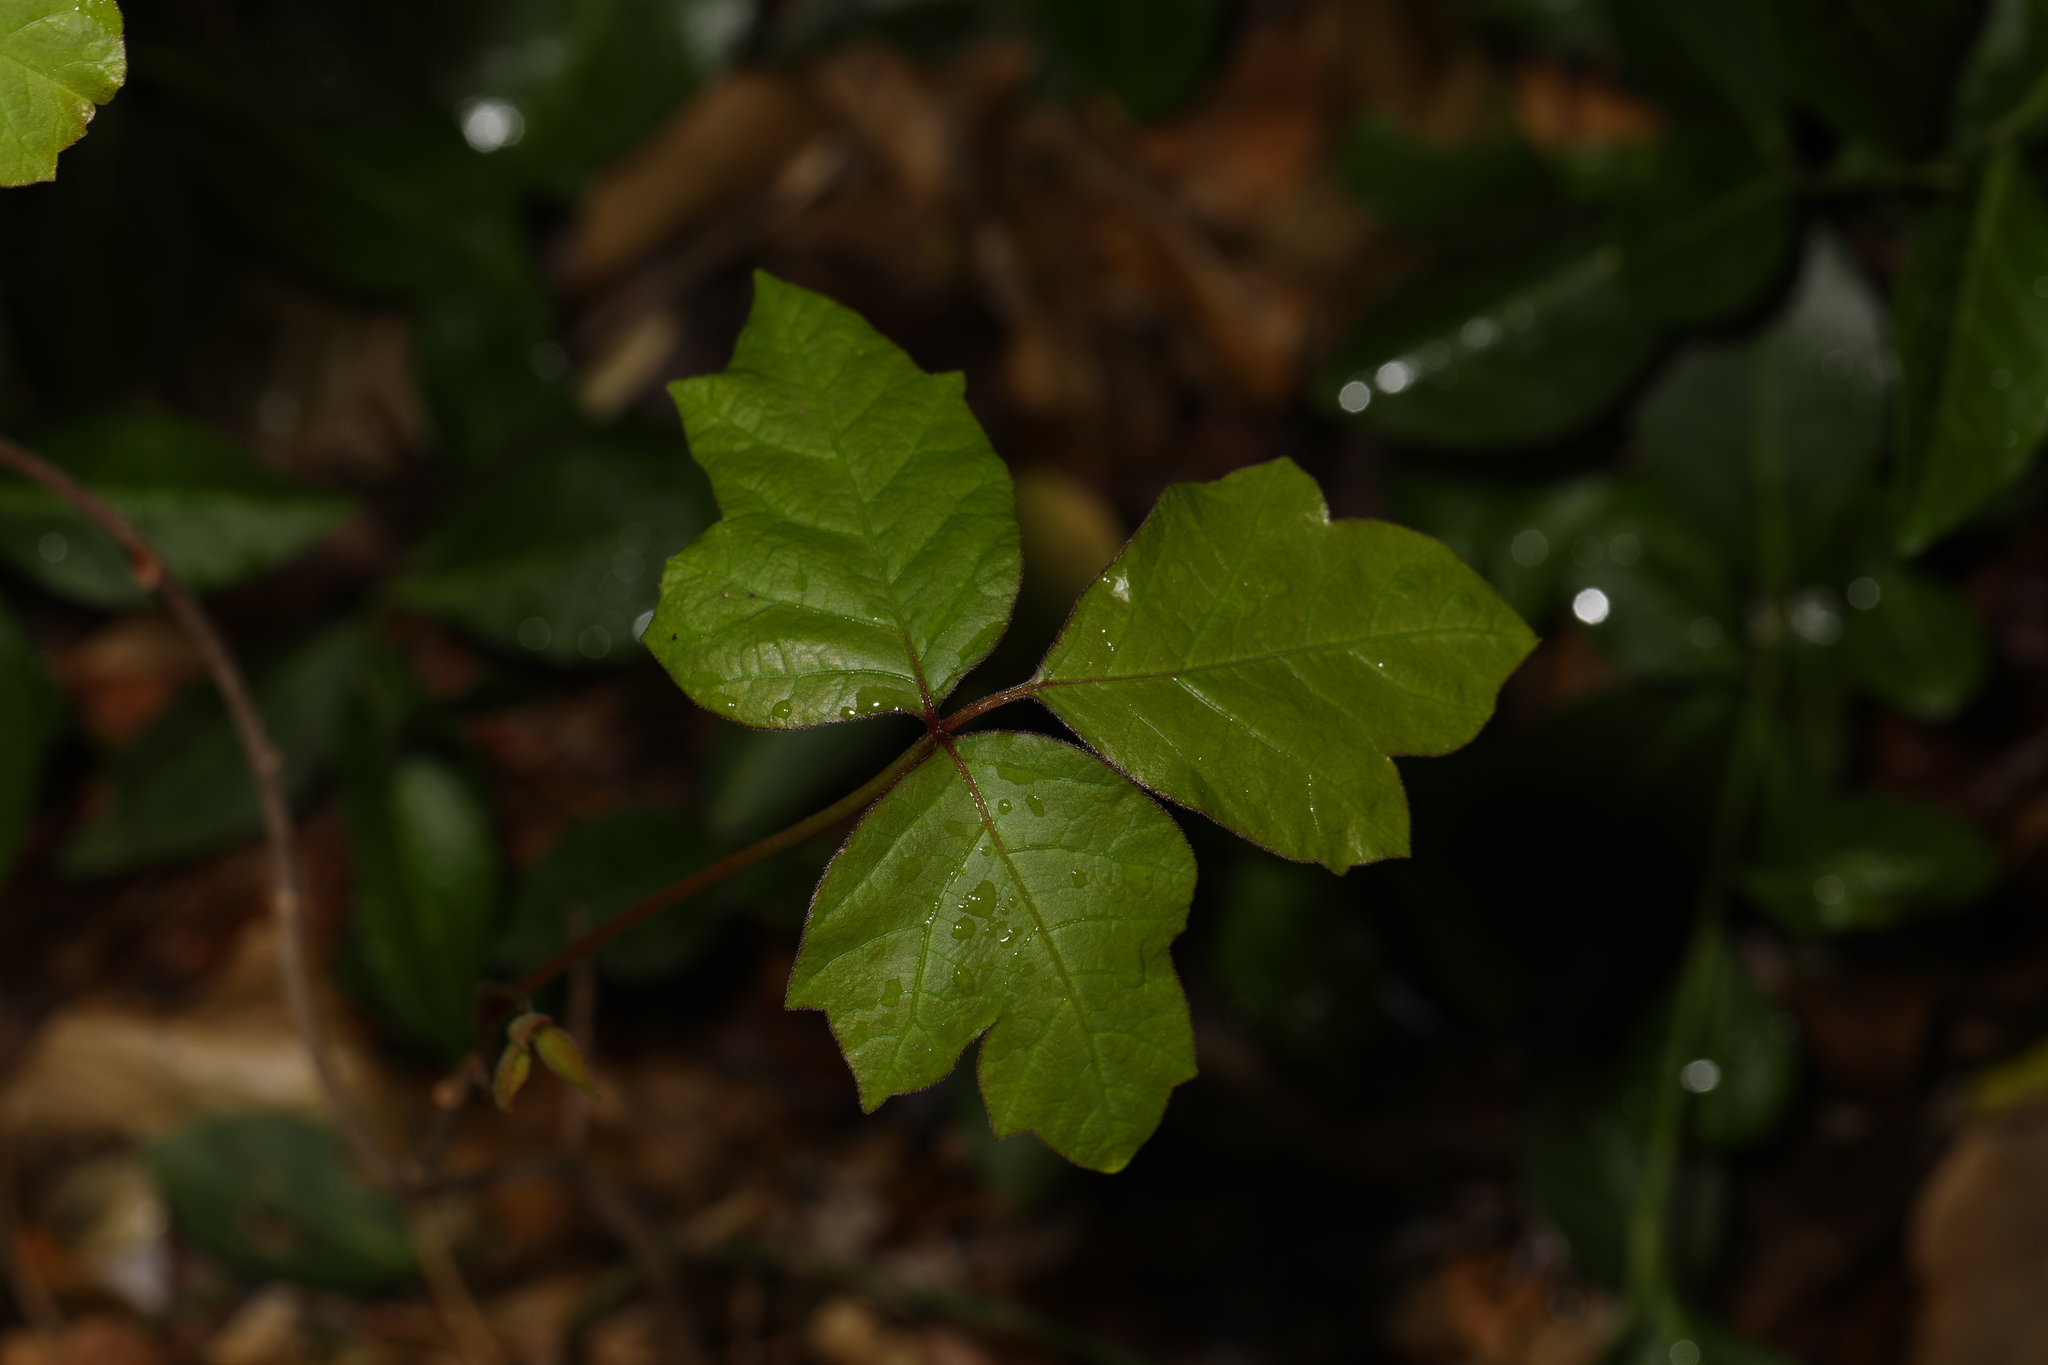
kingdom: Plantae
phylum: Tracheophyta
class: Magnoliopsida
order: Sapindales
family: Anacardiaceae
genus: Toxicodendron
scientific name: Toxicodendron radicans
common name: Poison ivy
